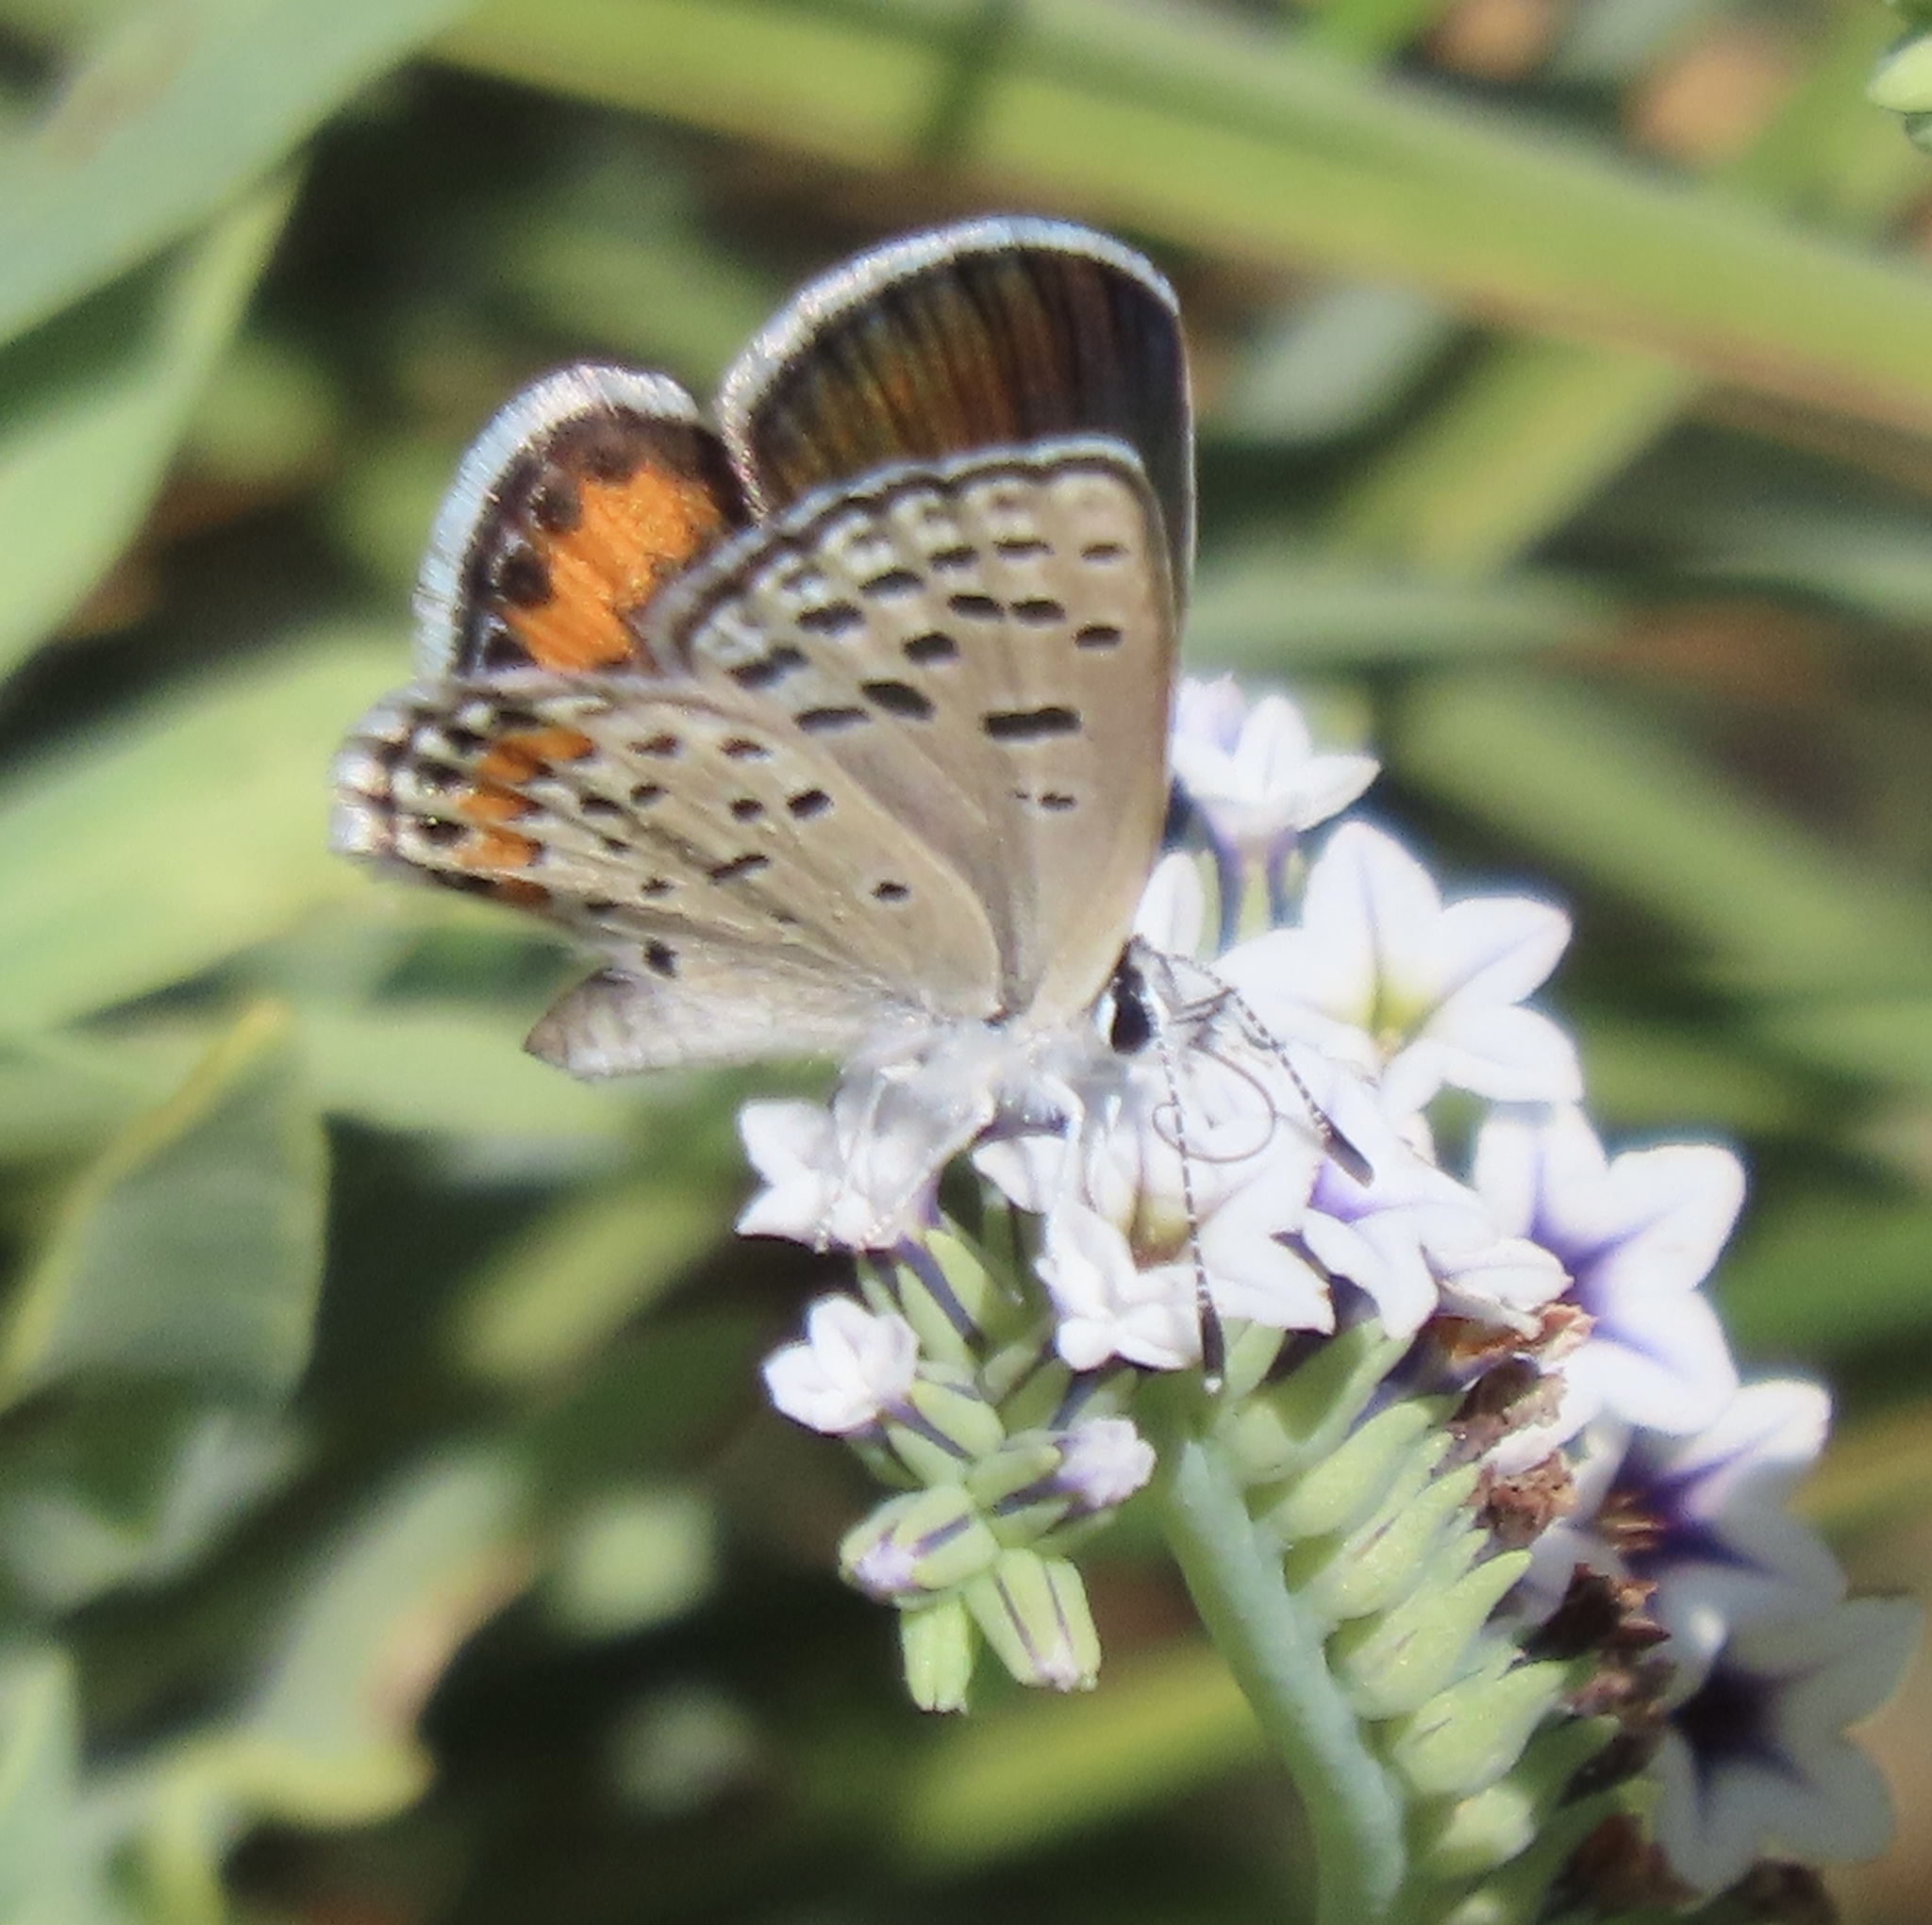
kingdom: Animalia
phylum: Arthropoda
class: Insecta
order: Lepidoptera
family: Lycaenidae
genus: Icaricia
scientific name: Icaricia acmon
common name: Acmon blue
